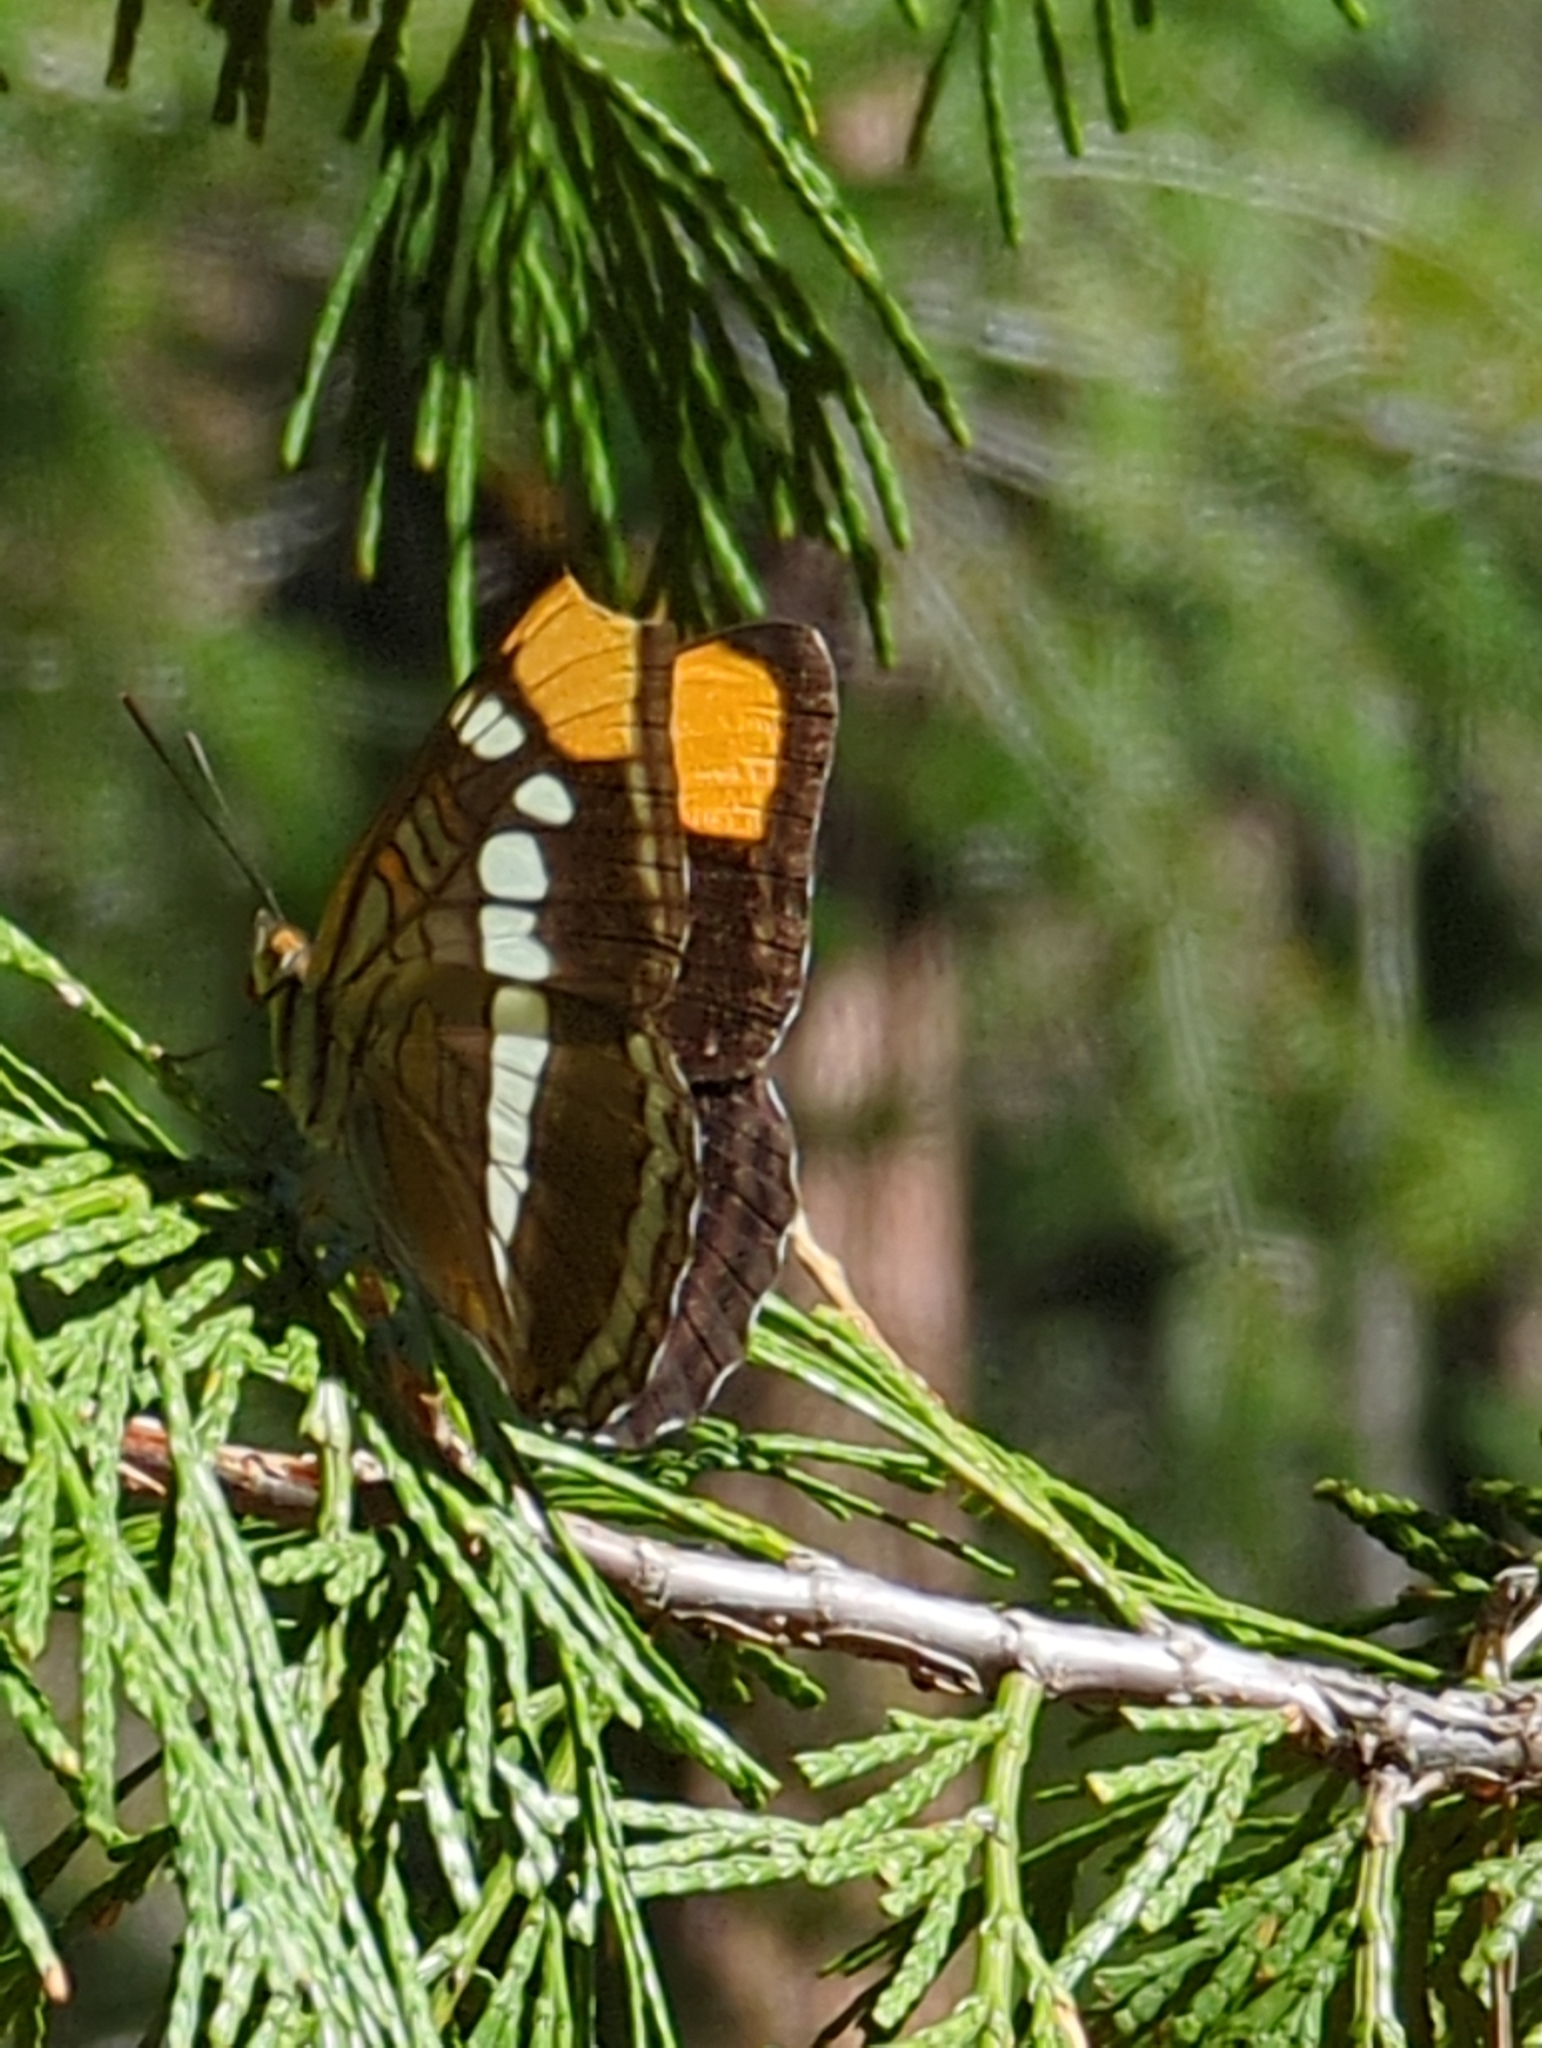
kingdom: Animalia
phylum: Arthropoda
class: Insecta
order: Lepidoptera
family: Nymphalidae
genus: Limenitis
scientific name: Limenitis bredowii
